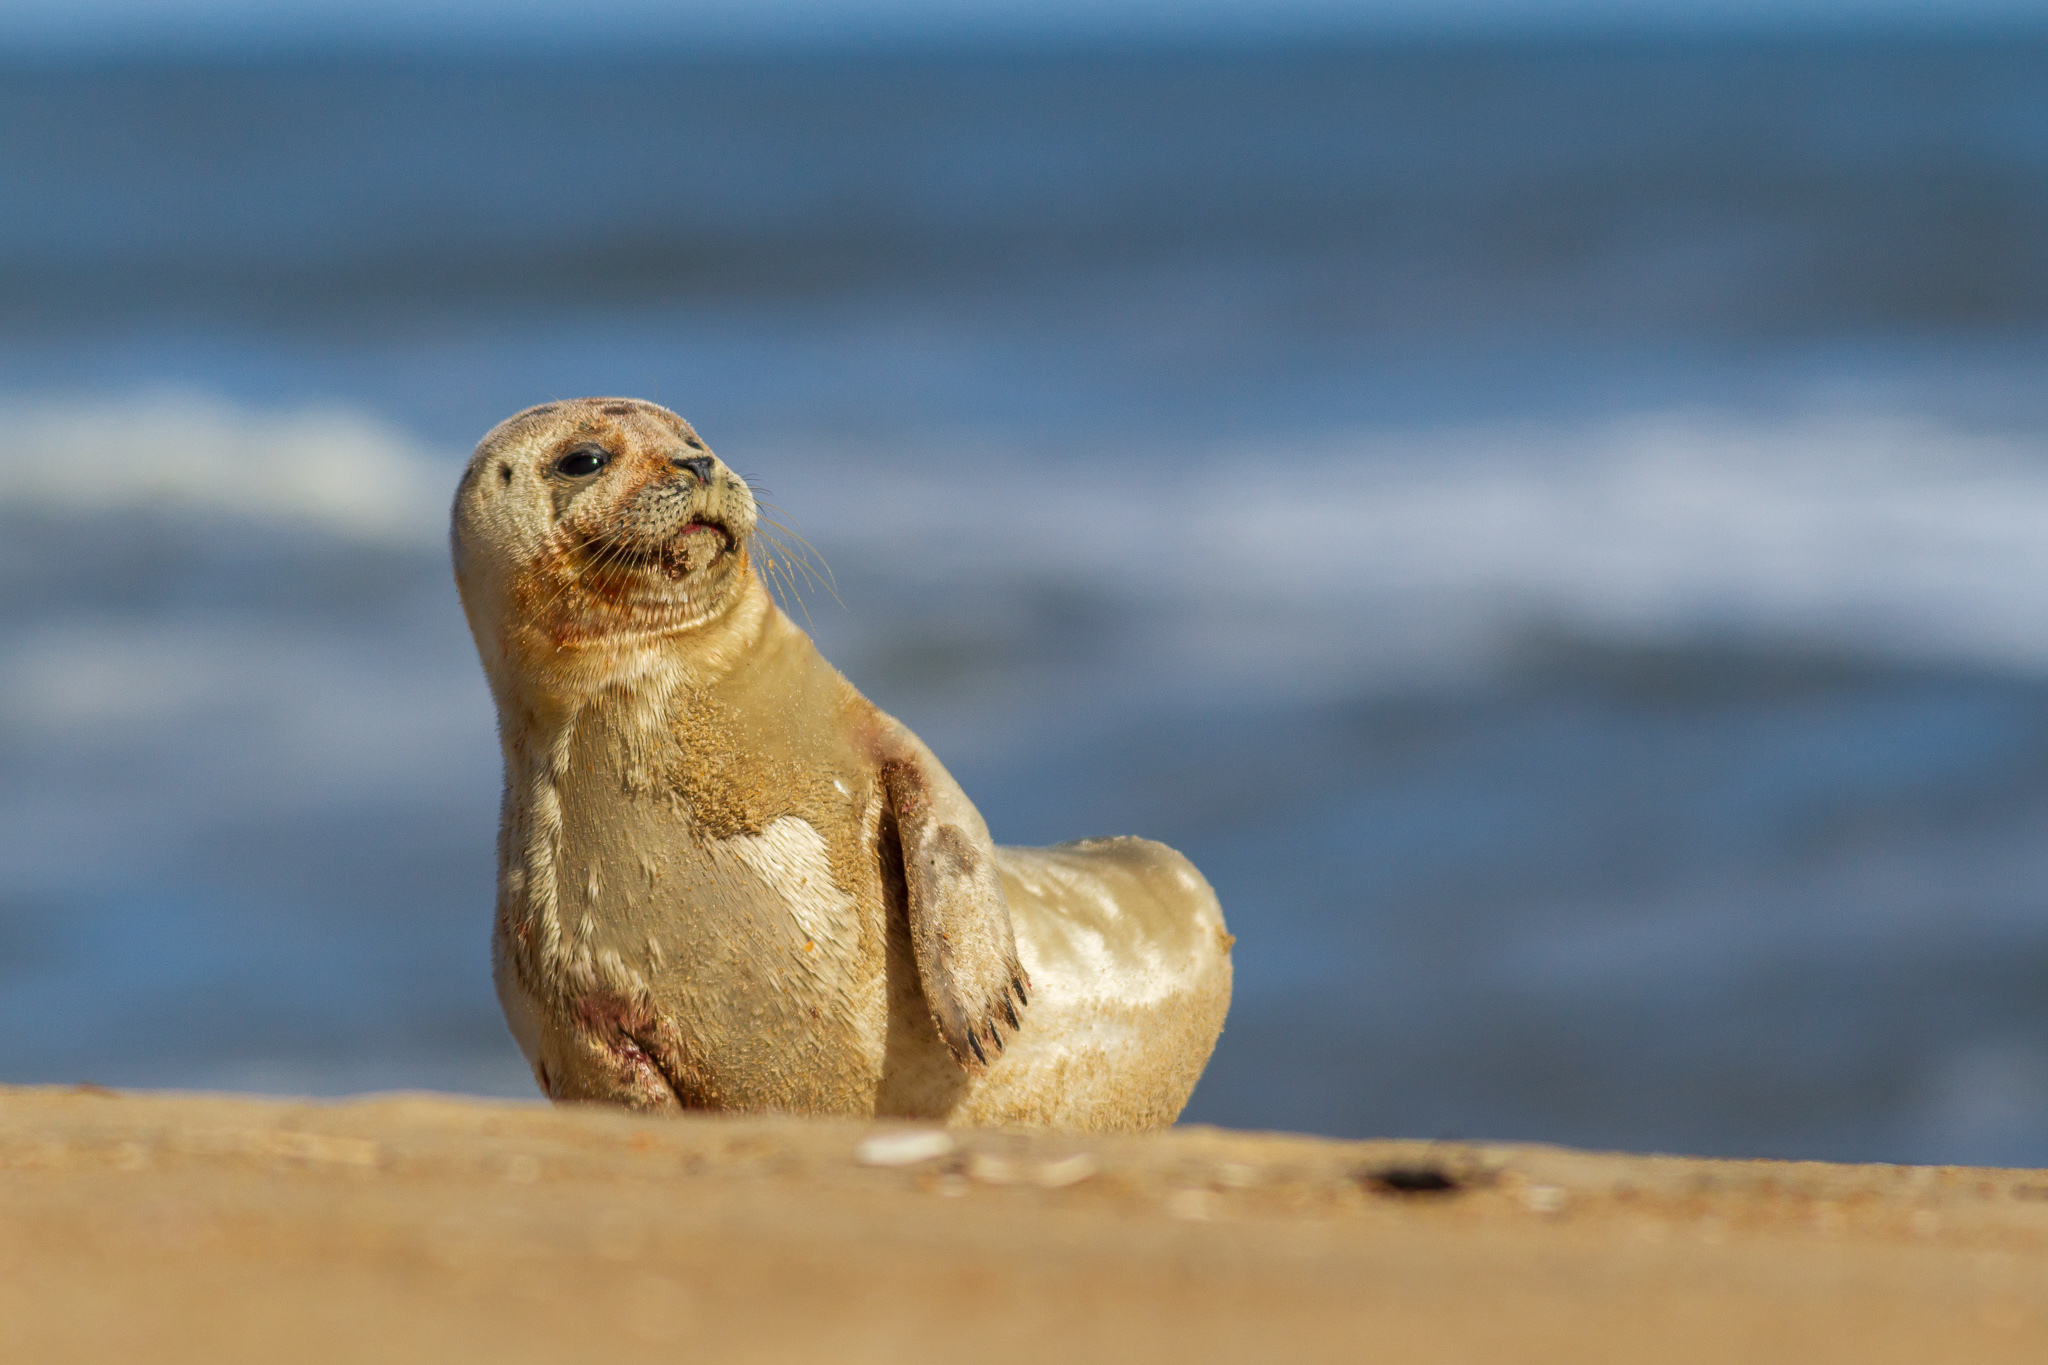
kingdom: Animalia
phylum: Chordata
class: Mammalia
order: Carnivora
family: Phocidae
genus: Phoca
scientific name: Phoca vitulina
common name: Harbor seal
